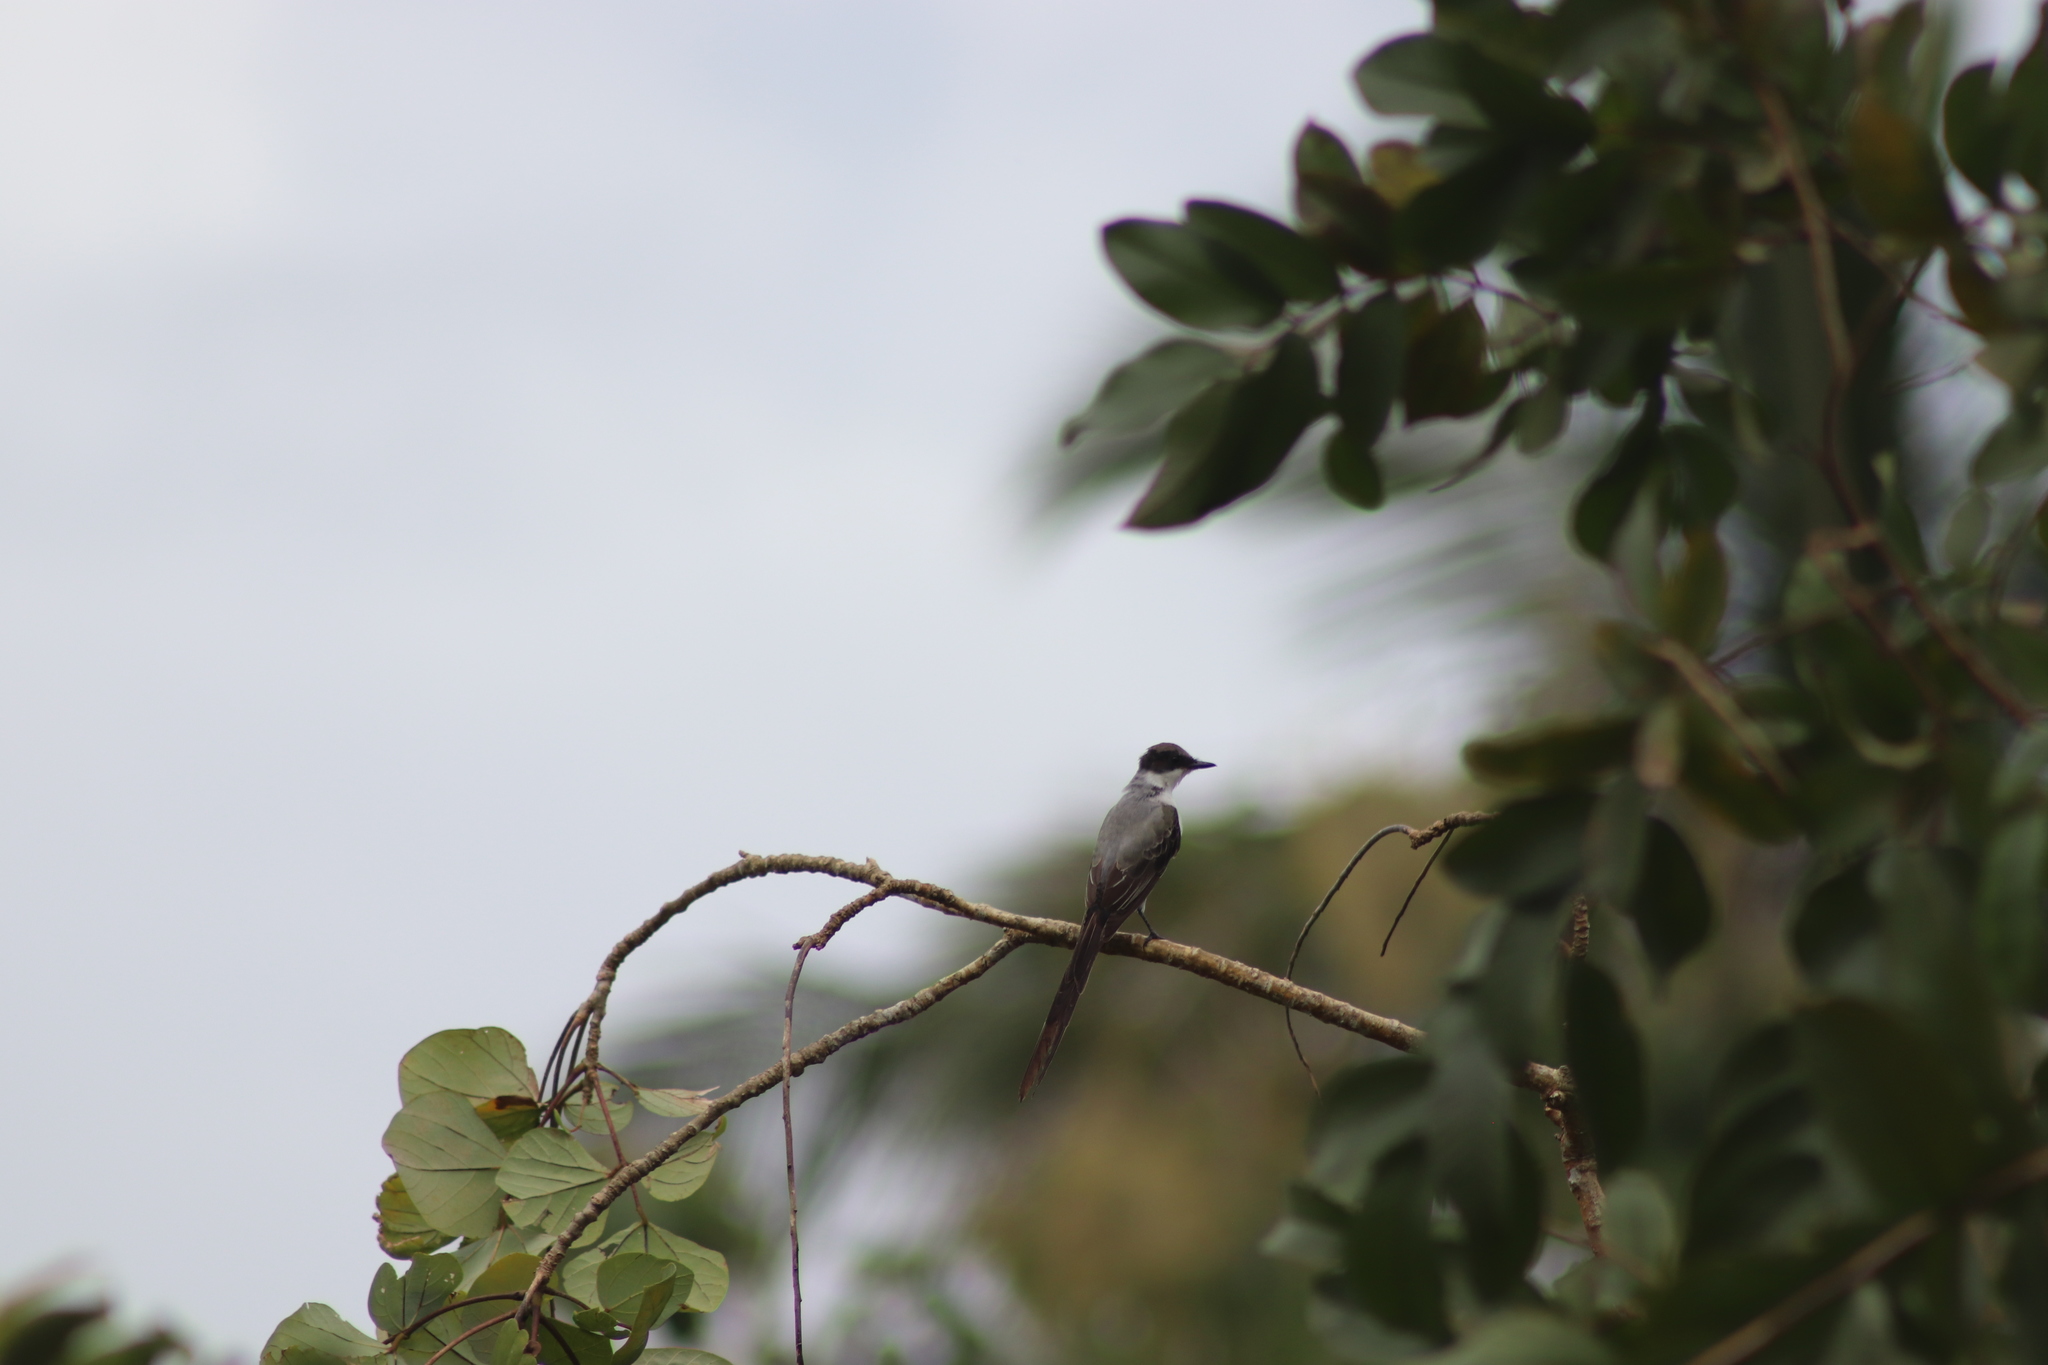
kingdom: Animalia
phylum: Chordata
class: Aves
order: Passeriformes
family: Tyrannidae
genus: Tyrannus
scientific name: Tyrannus savana
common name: Fork-tailed flycatcher
